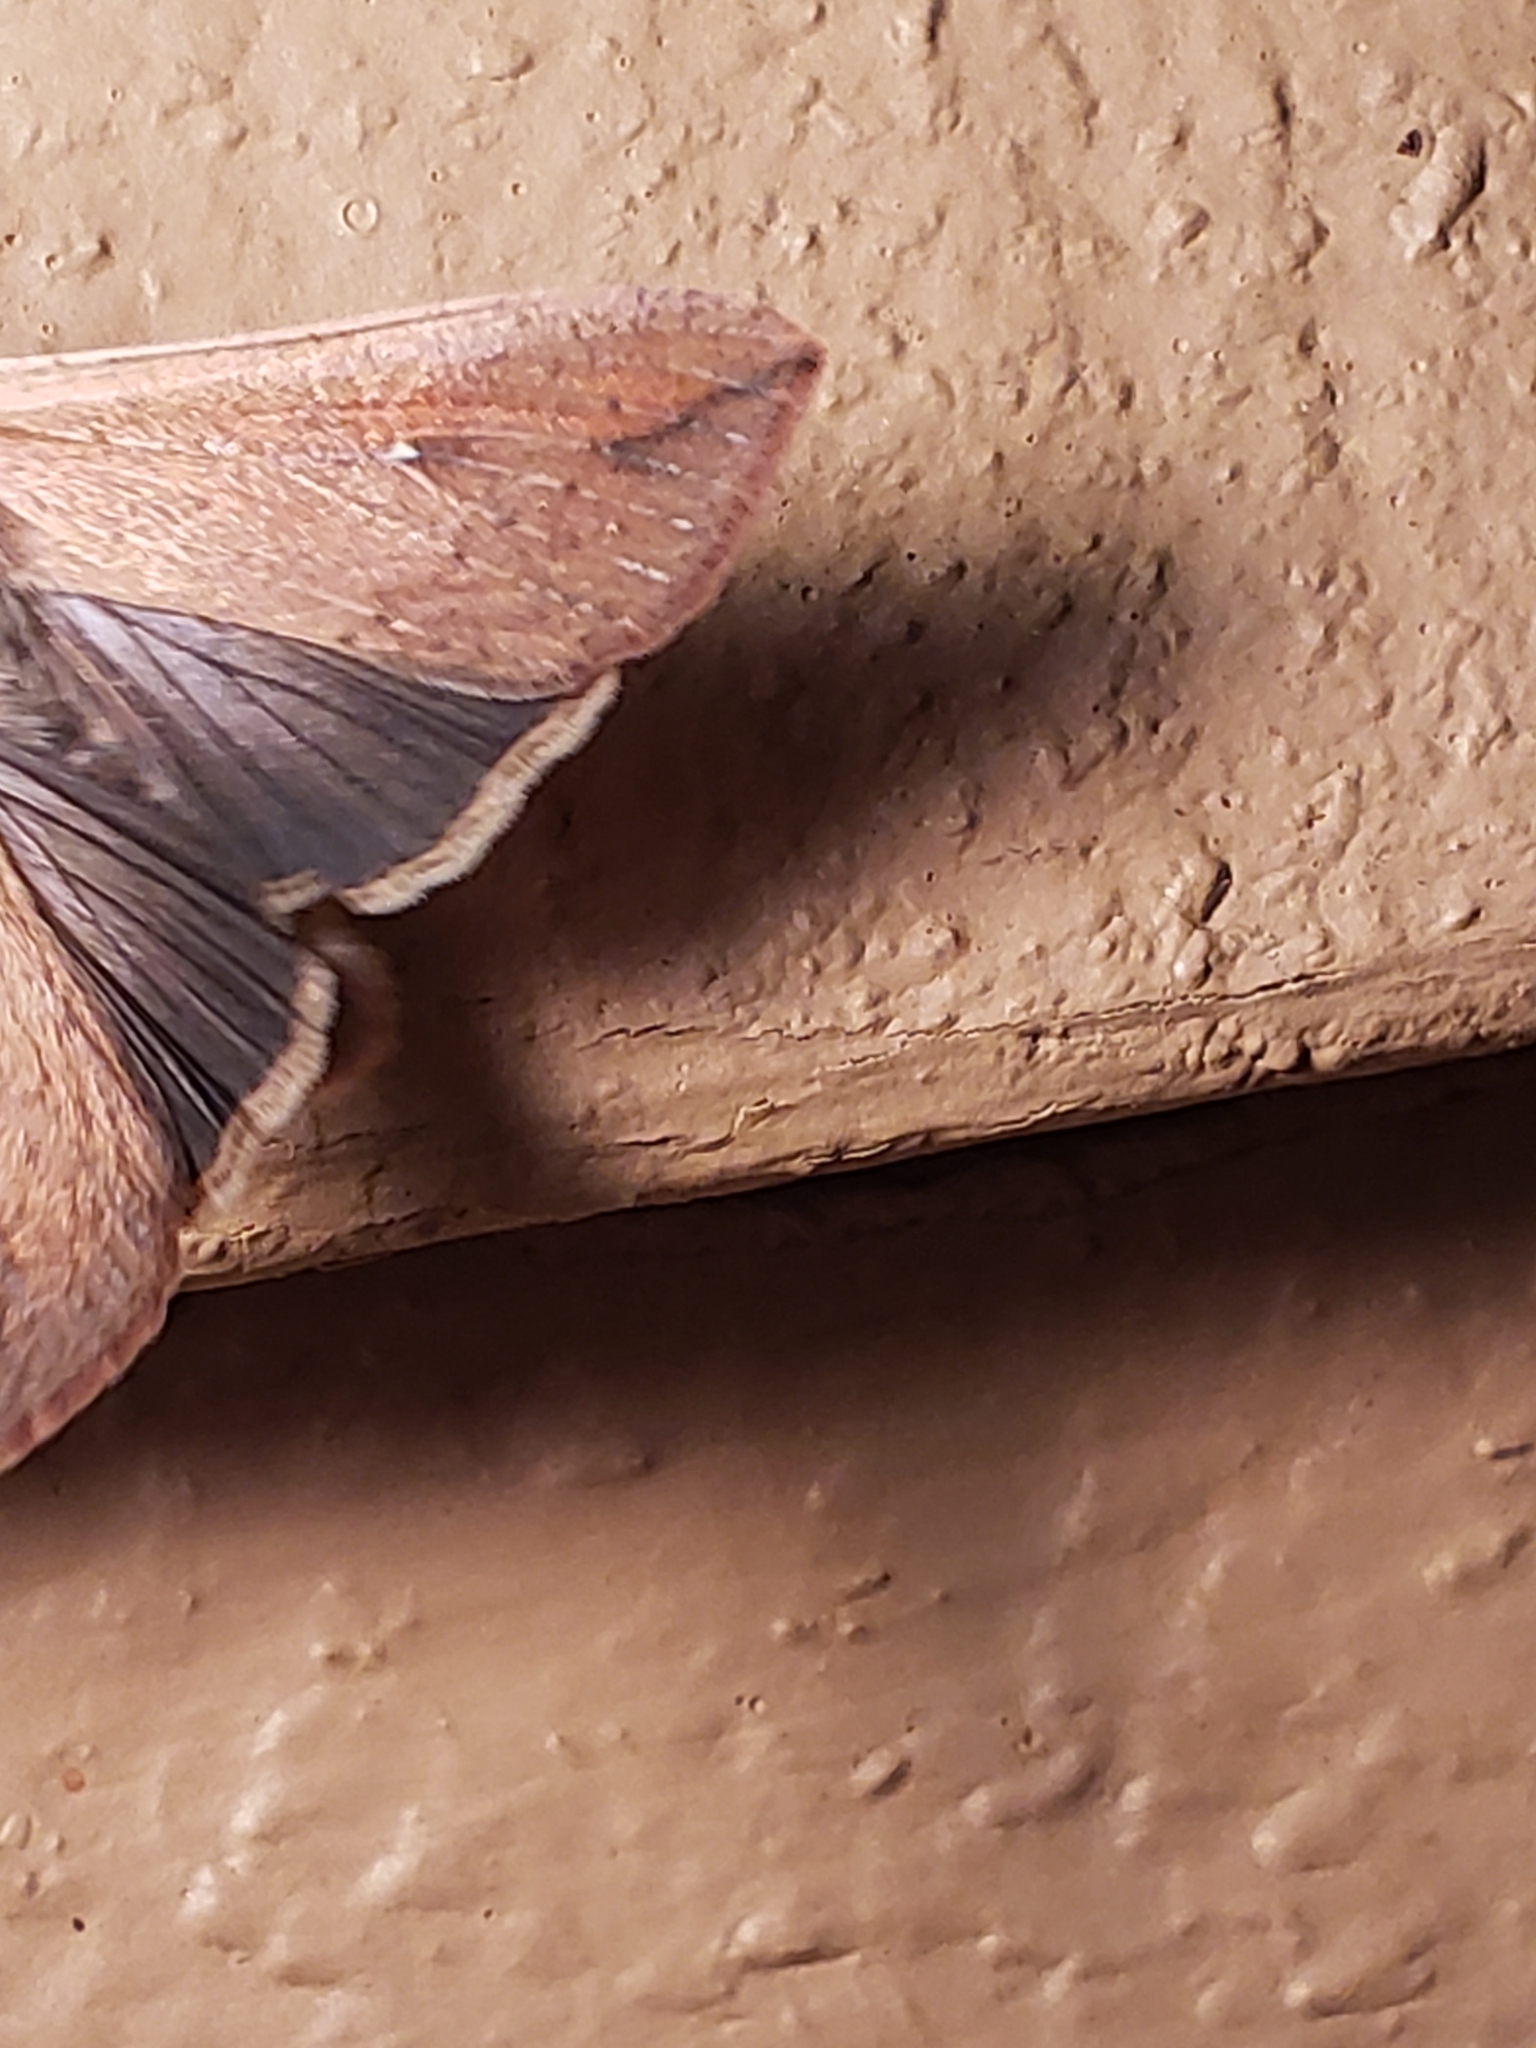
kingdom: Animalia
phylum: Arthropoda
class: Insecta
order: Lepidoptera
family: Noctuidae
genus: Mythimna
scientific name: Mythimna unipuncta
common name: White-speck
